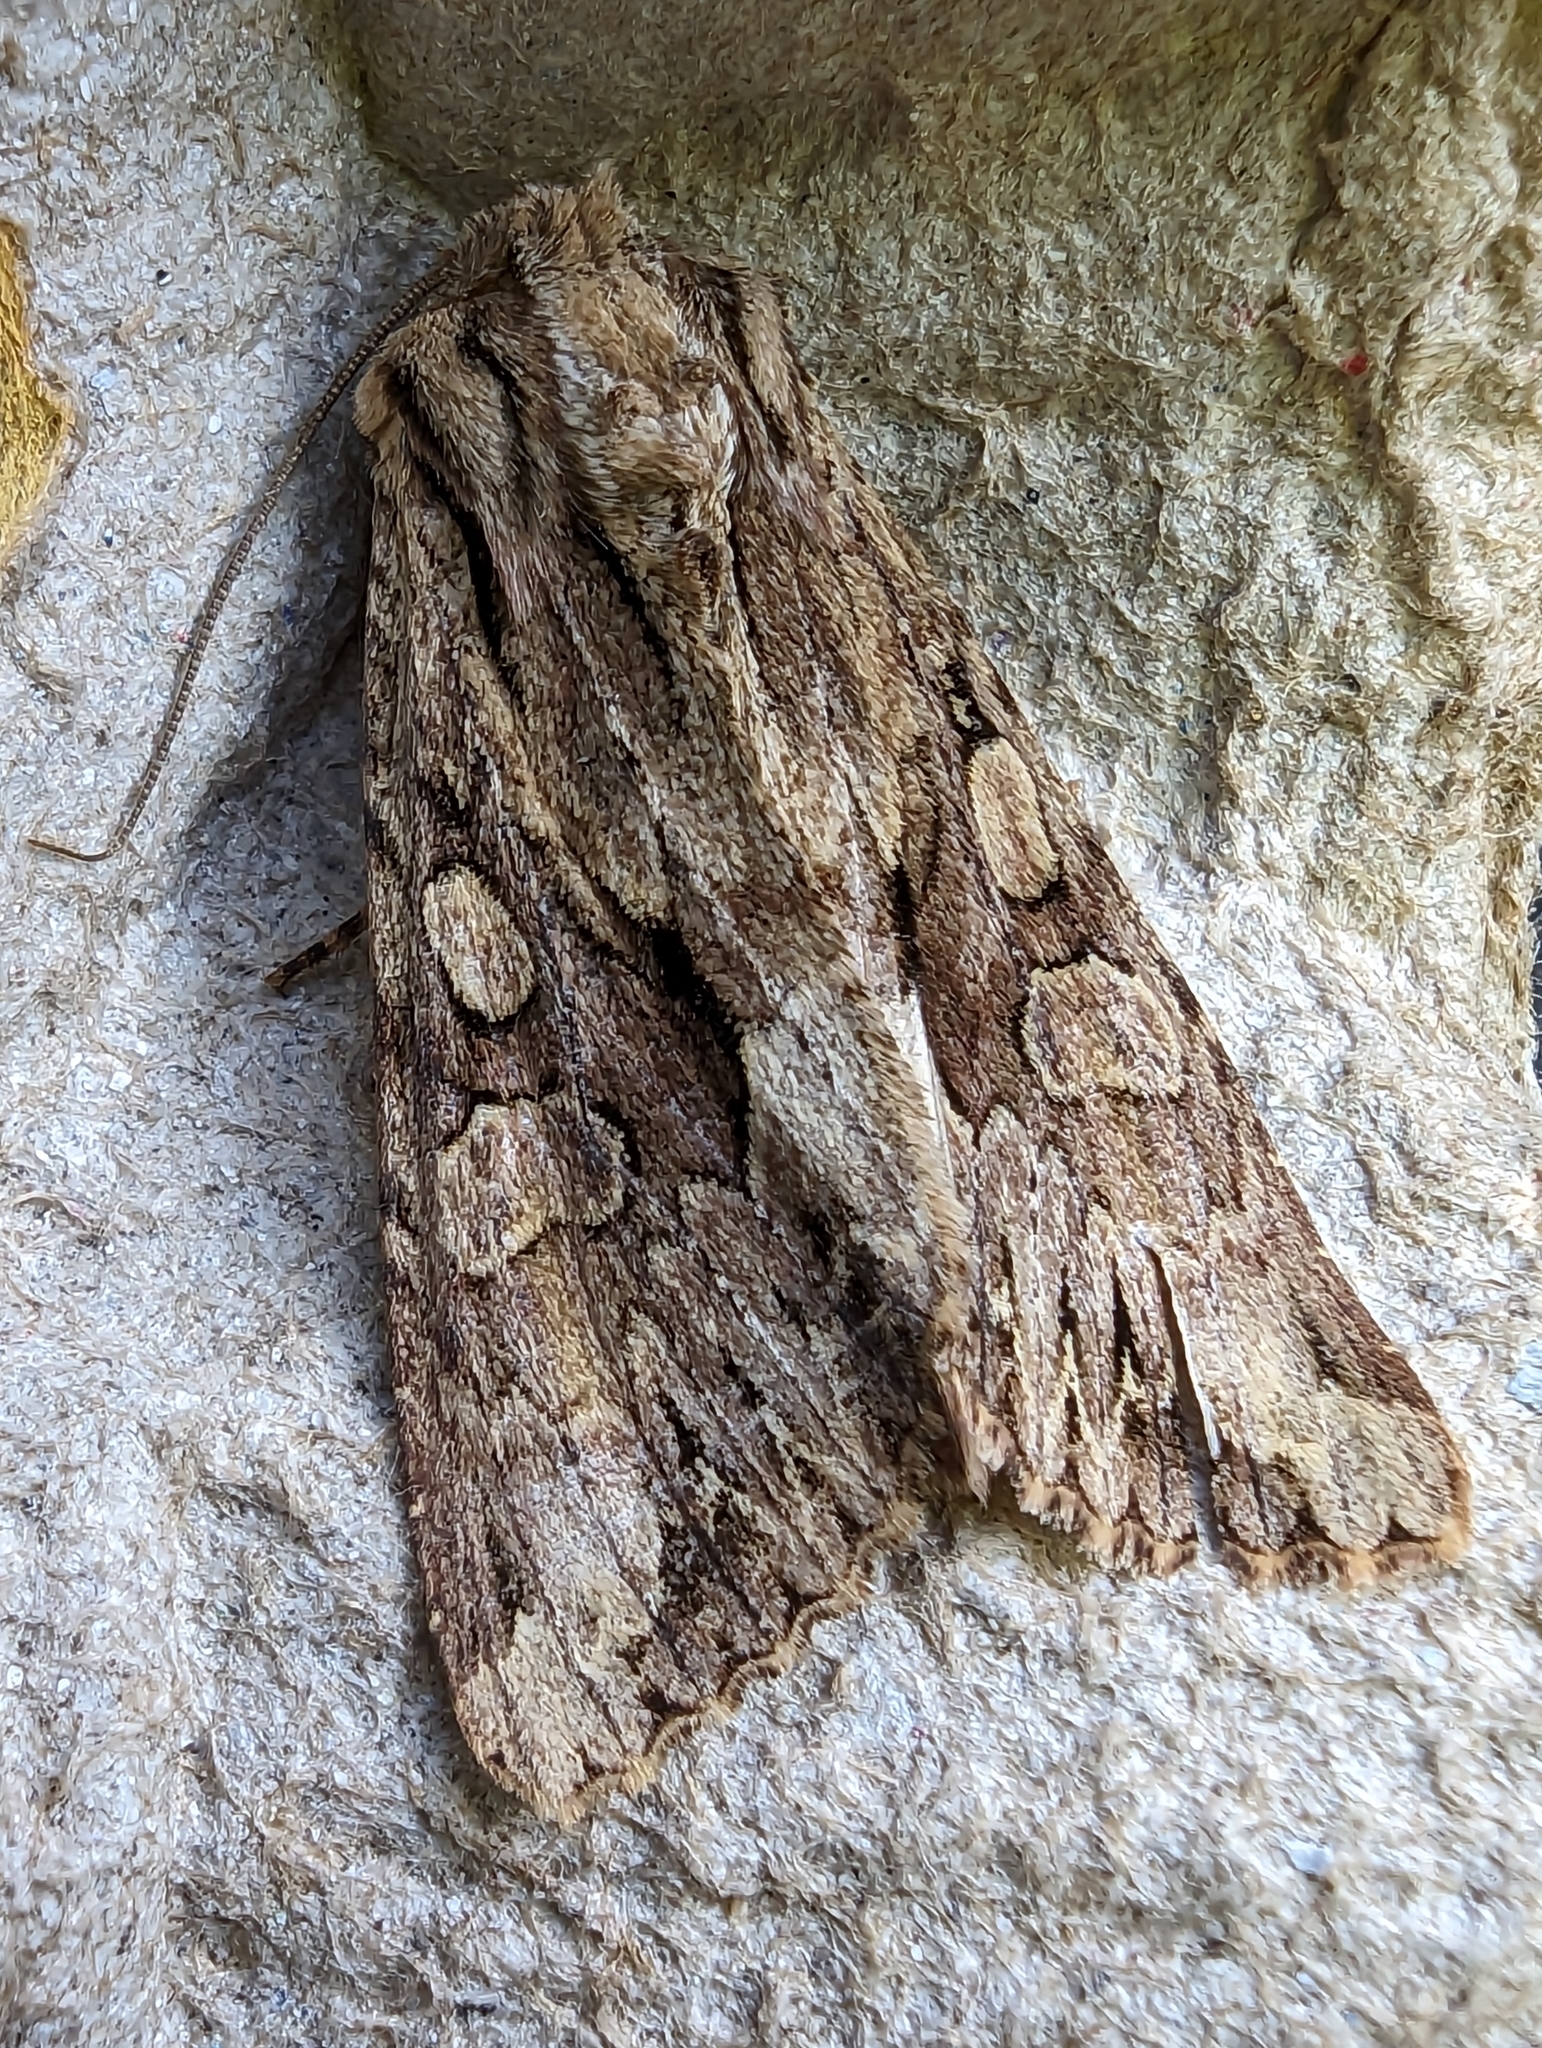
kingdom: Animalia
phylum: Arthropoda
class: Insecta
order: Lepidoptera
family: Noctuidae
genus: Apamea
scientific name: Apamea monoglypha
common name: Dark arches
